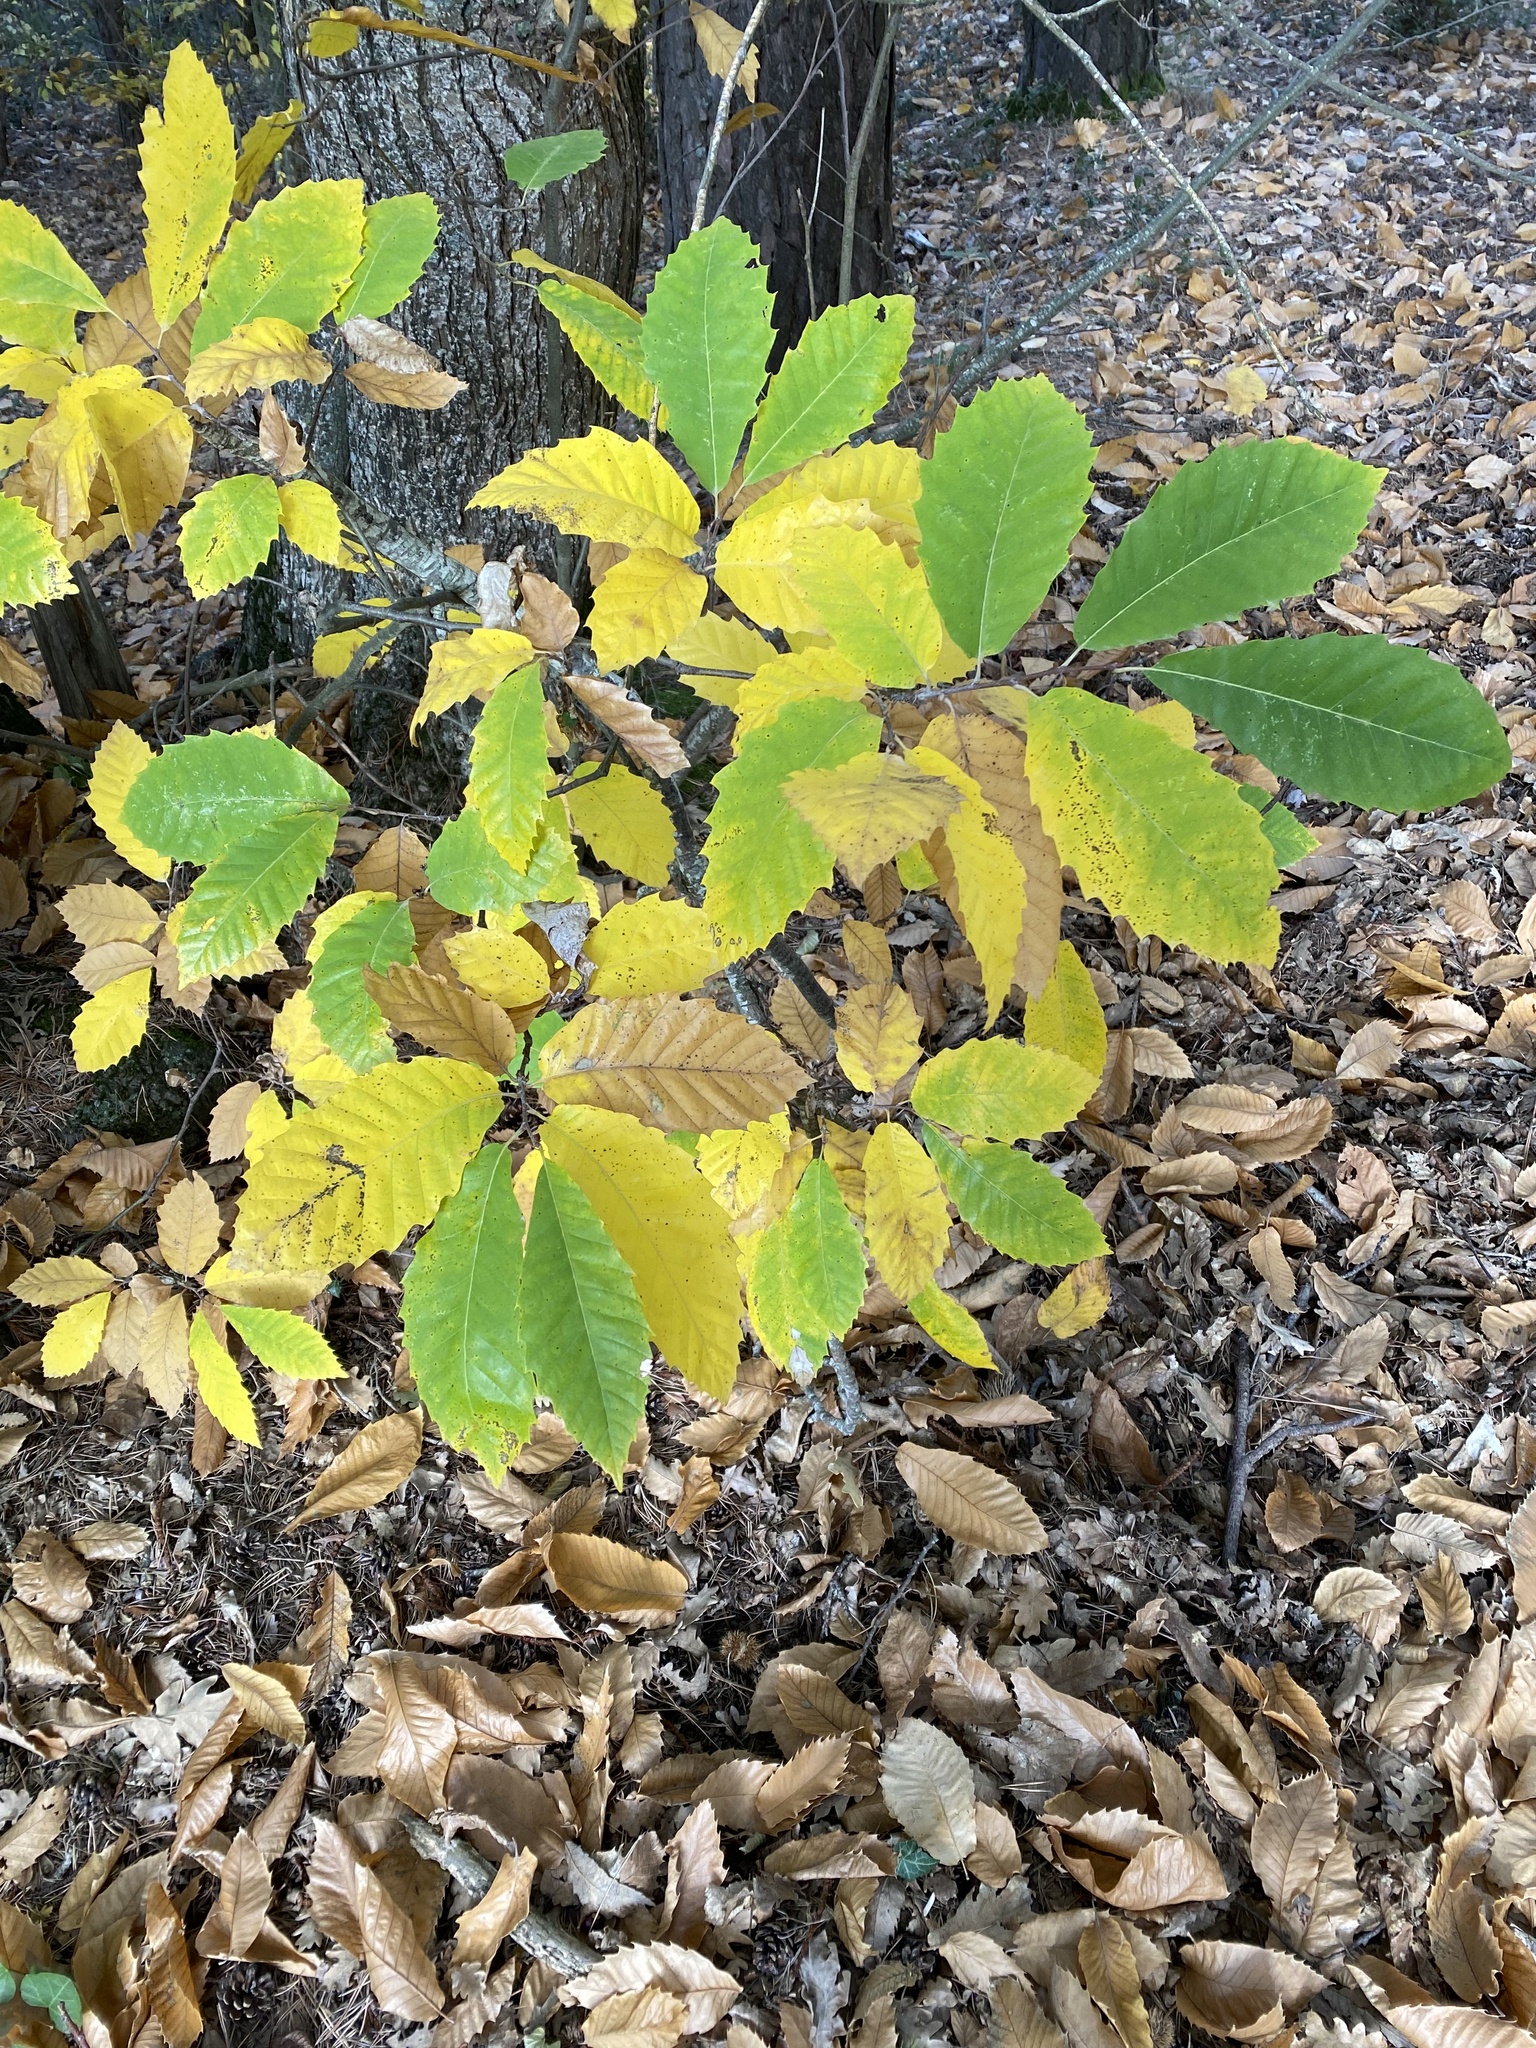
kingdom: Plantae
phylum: Tracheophyta
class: Magnoliopsida
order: Fagales
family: Fagaceae
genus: Castanea
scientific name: Castanea sativa
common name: Sweet chestnut
